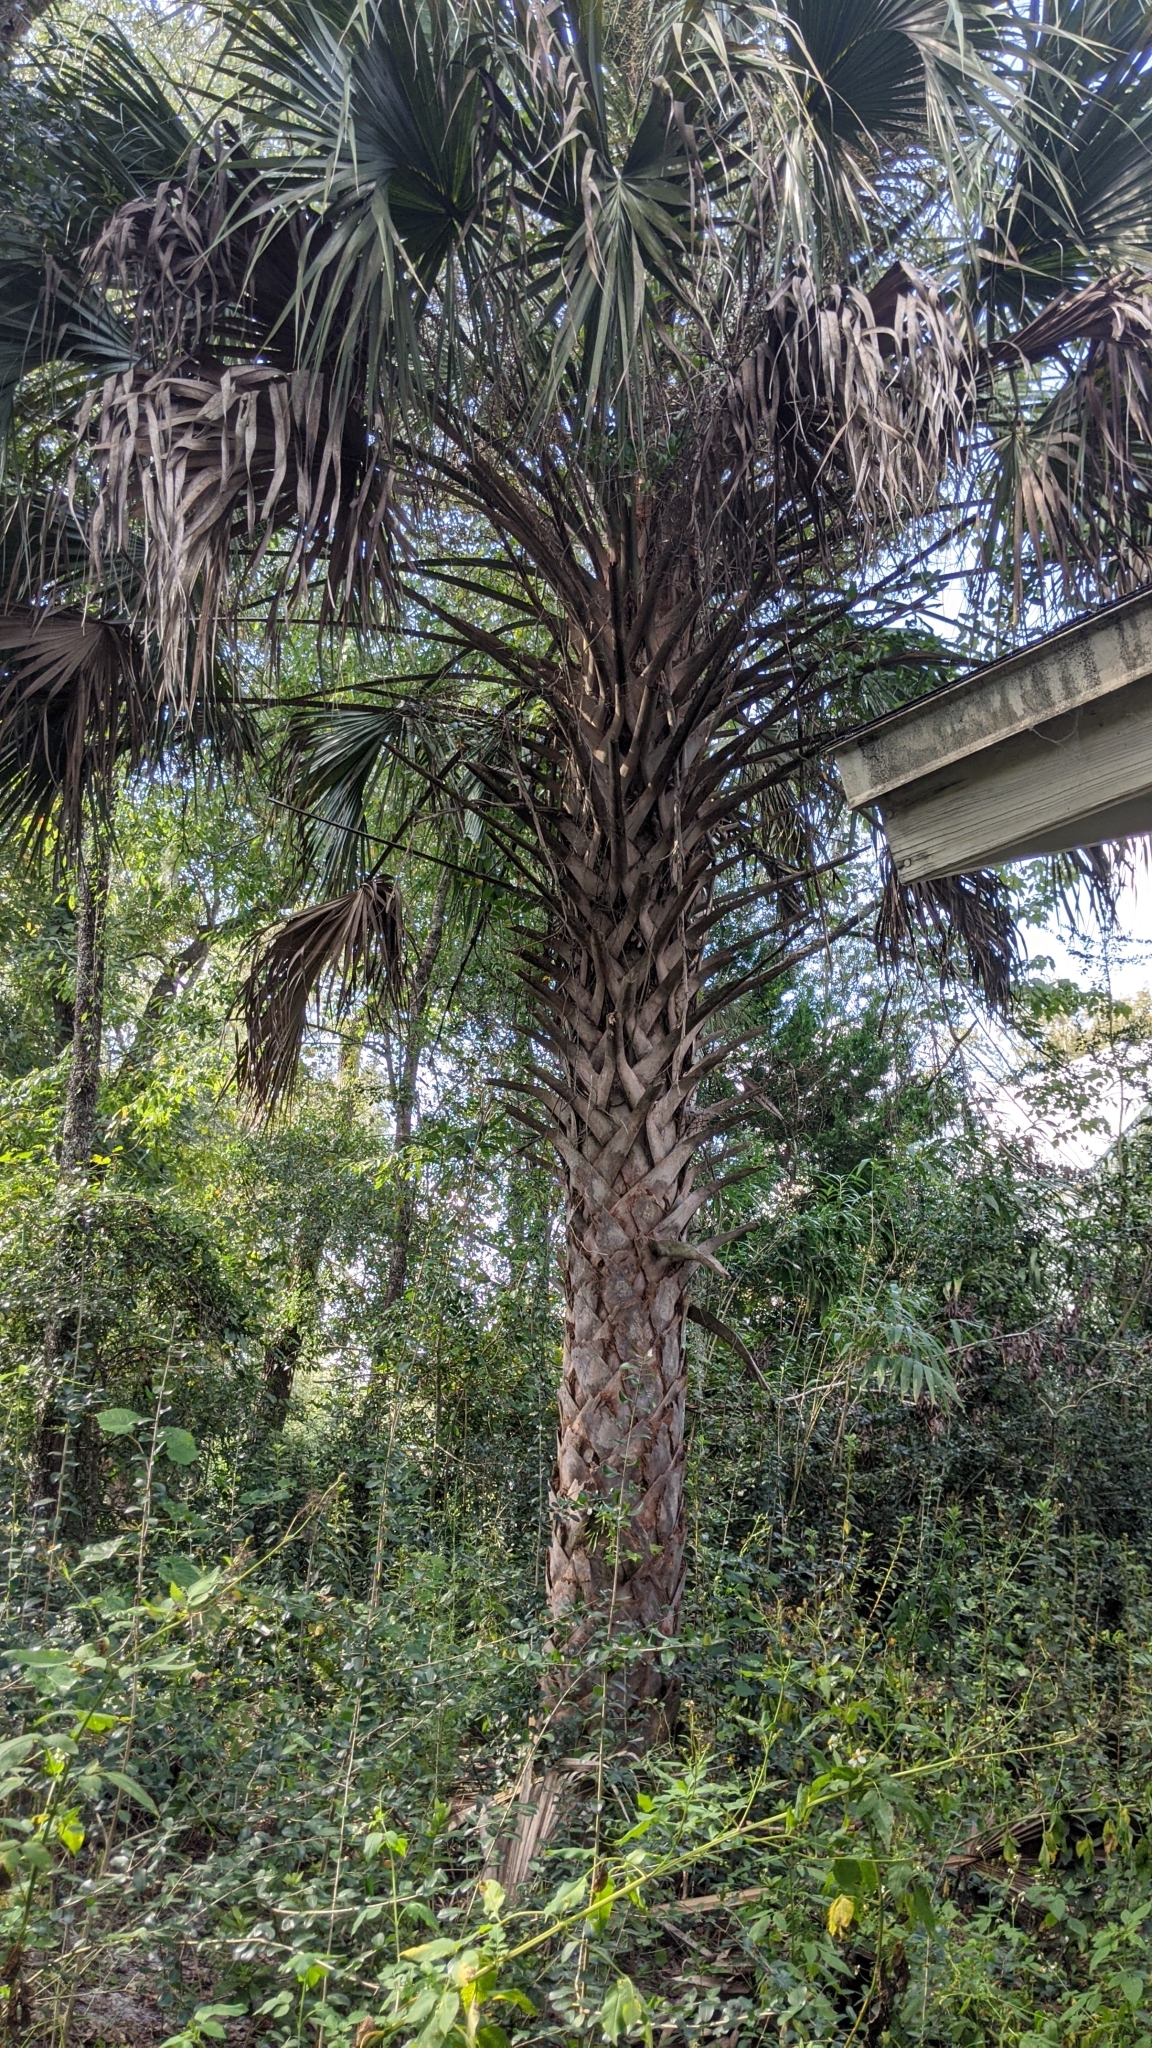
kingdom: Plantae
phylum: Tracheophyta
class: Liliopsida
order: Arecales
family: Arecaceae
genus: Sabal
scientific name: Sabal palmetto
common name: Blue palmetto
